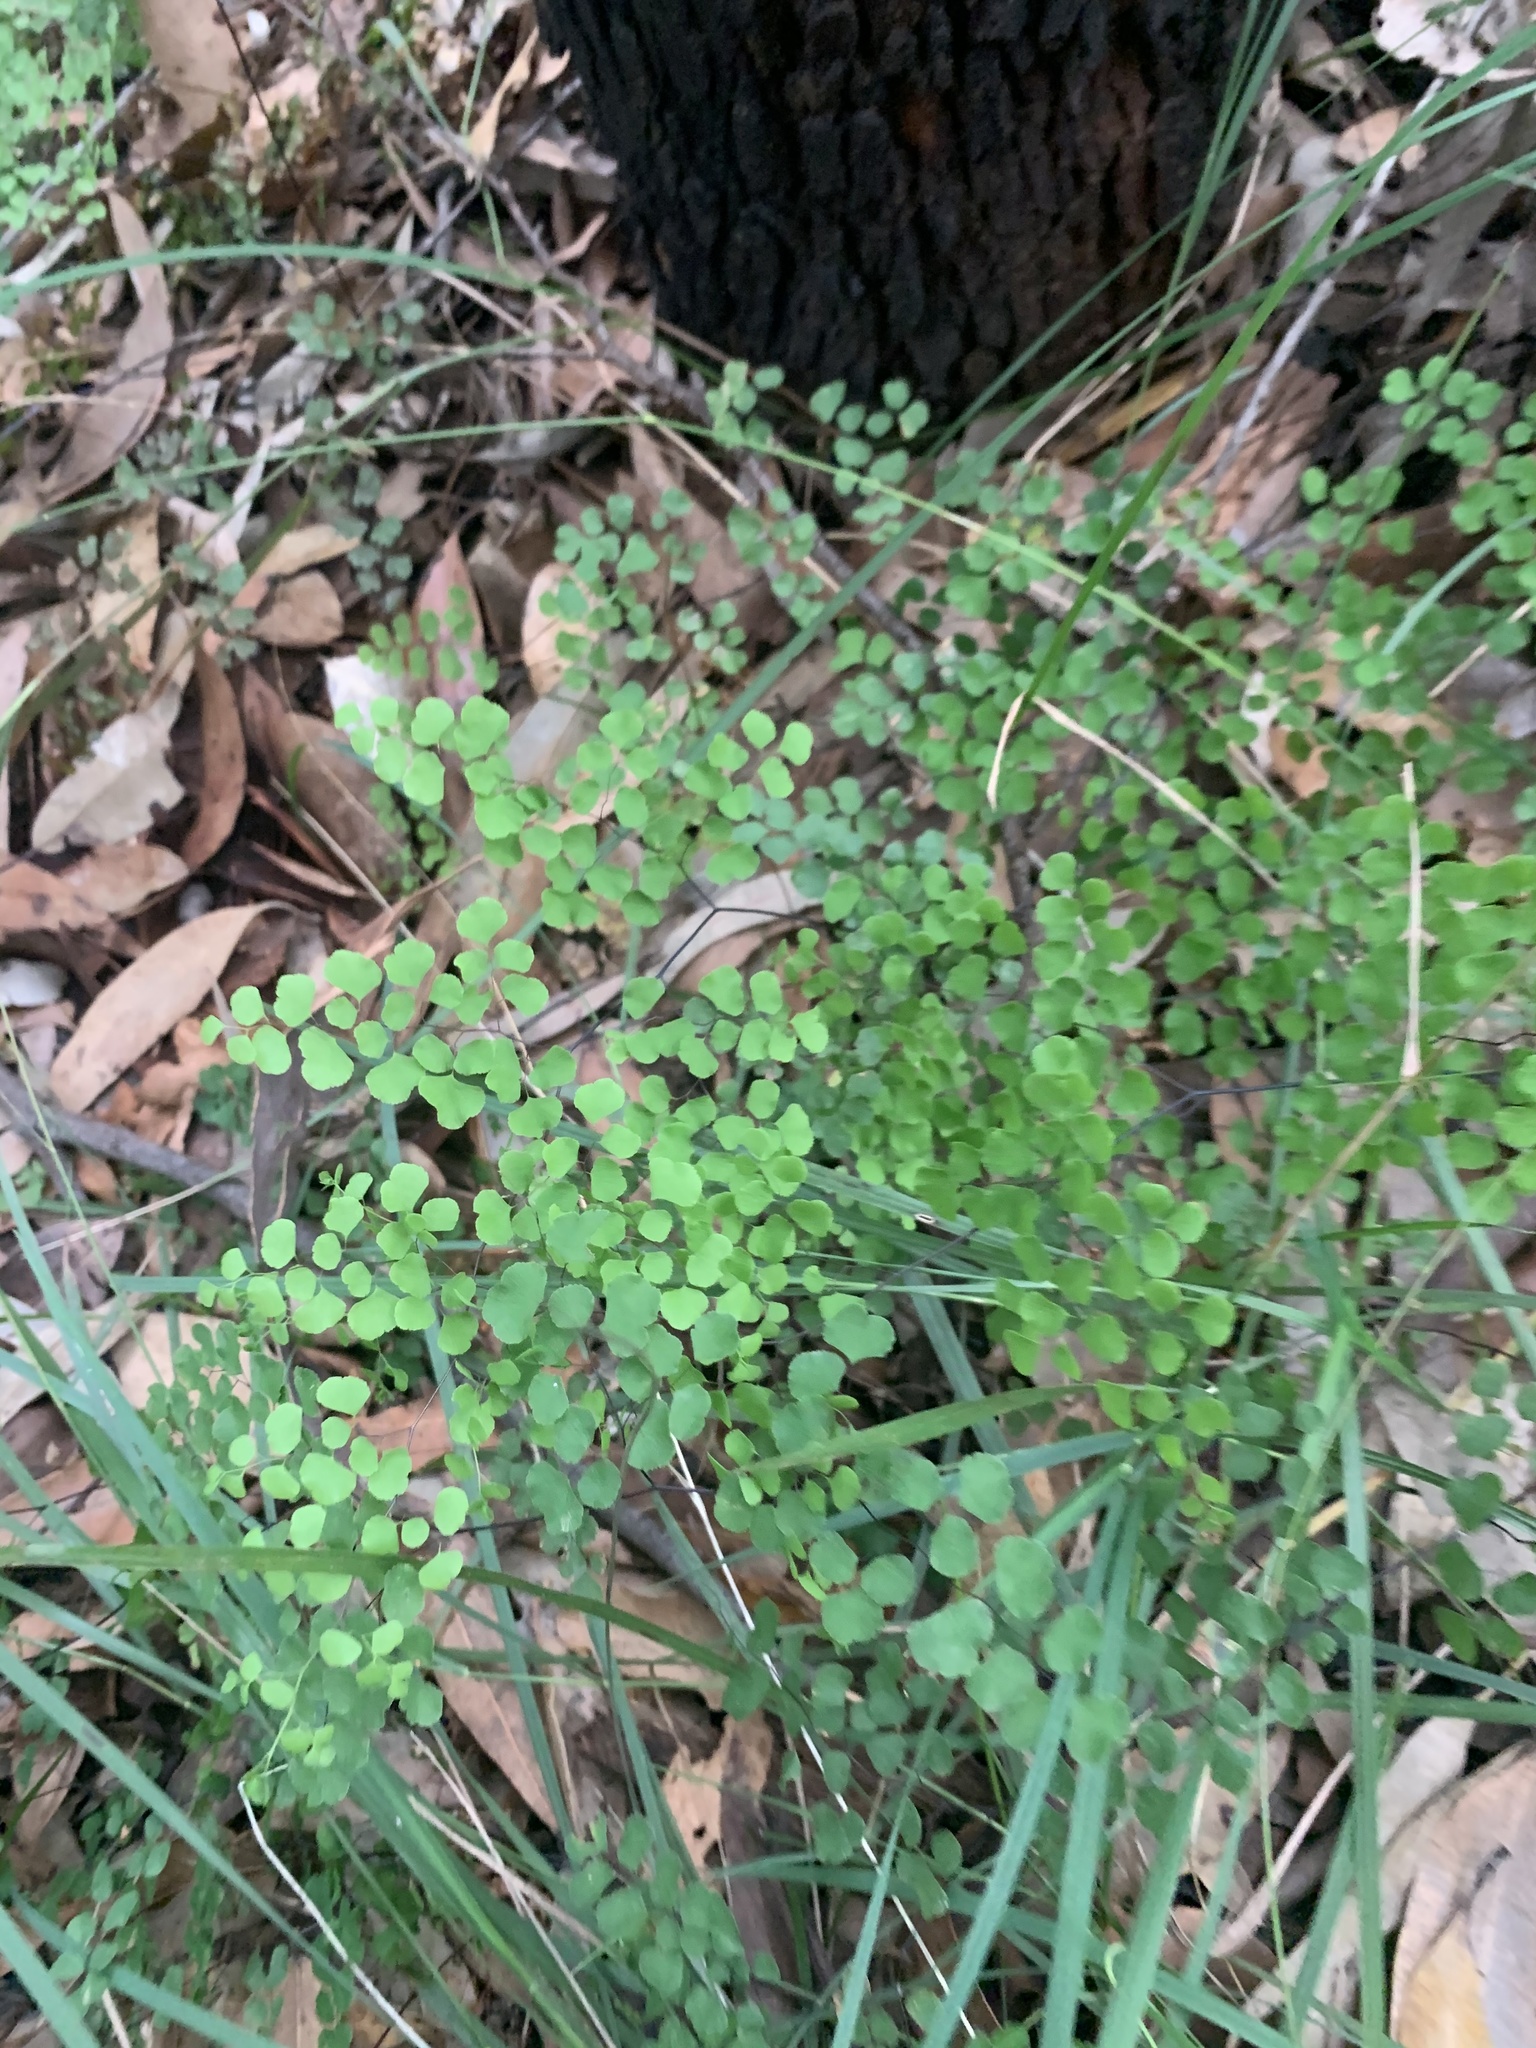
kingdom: Plantae
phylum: Tracheophyta
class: Polypodiopsida
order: Polypodiales
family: Pteridaceae
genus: Adiantum
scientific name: Adiantum aethiopicum
